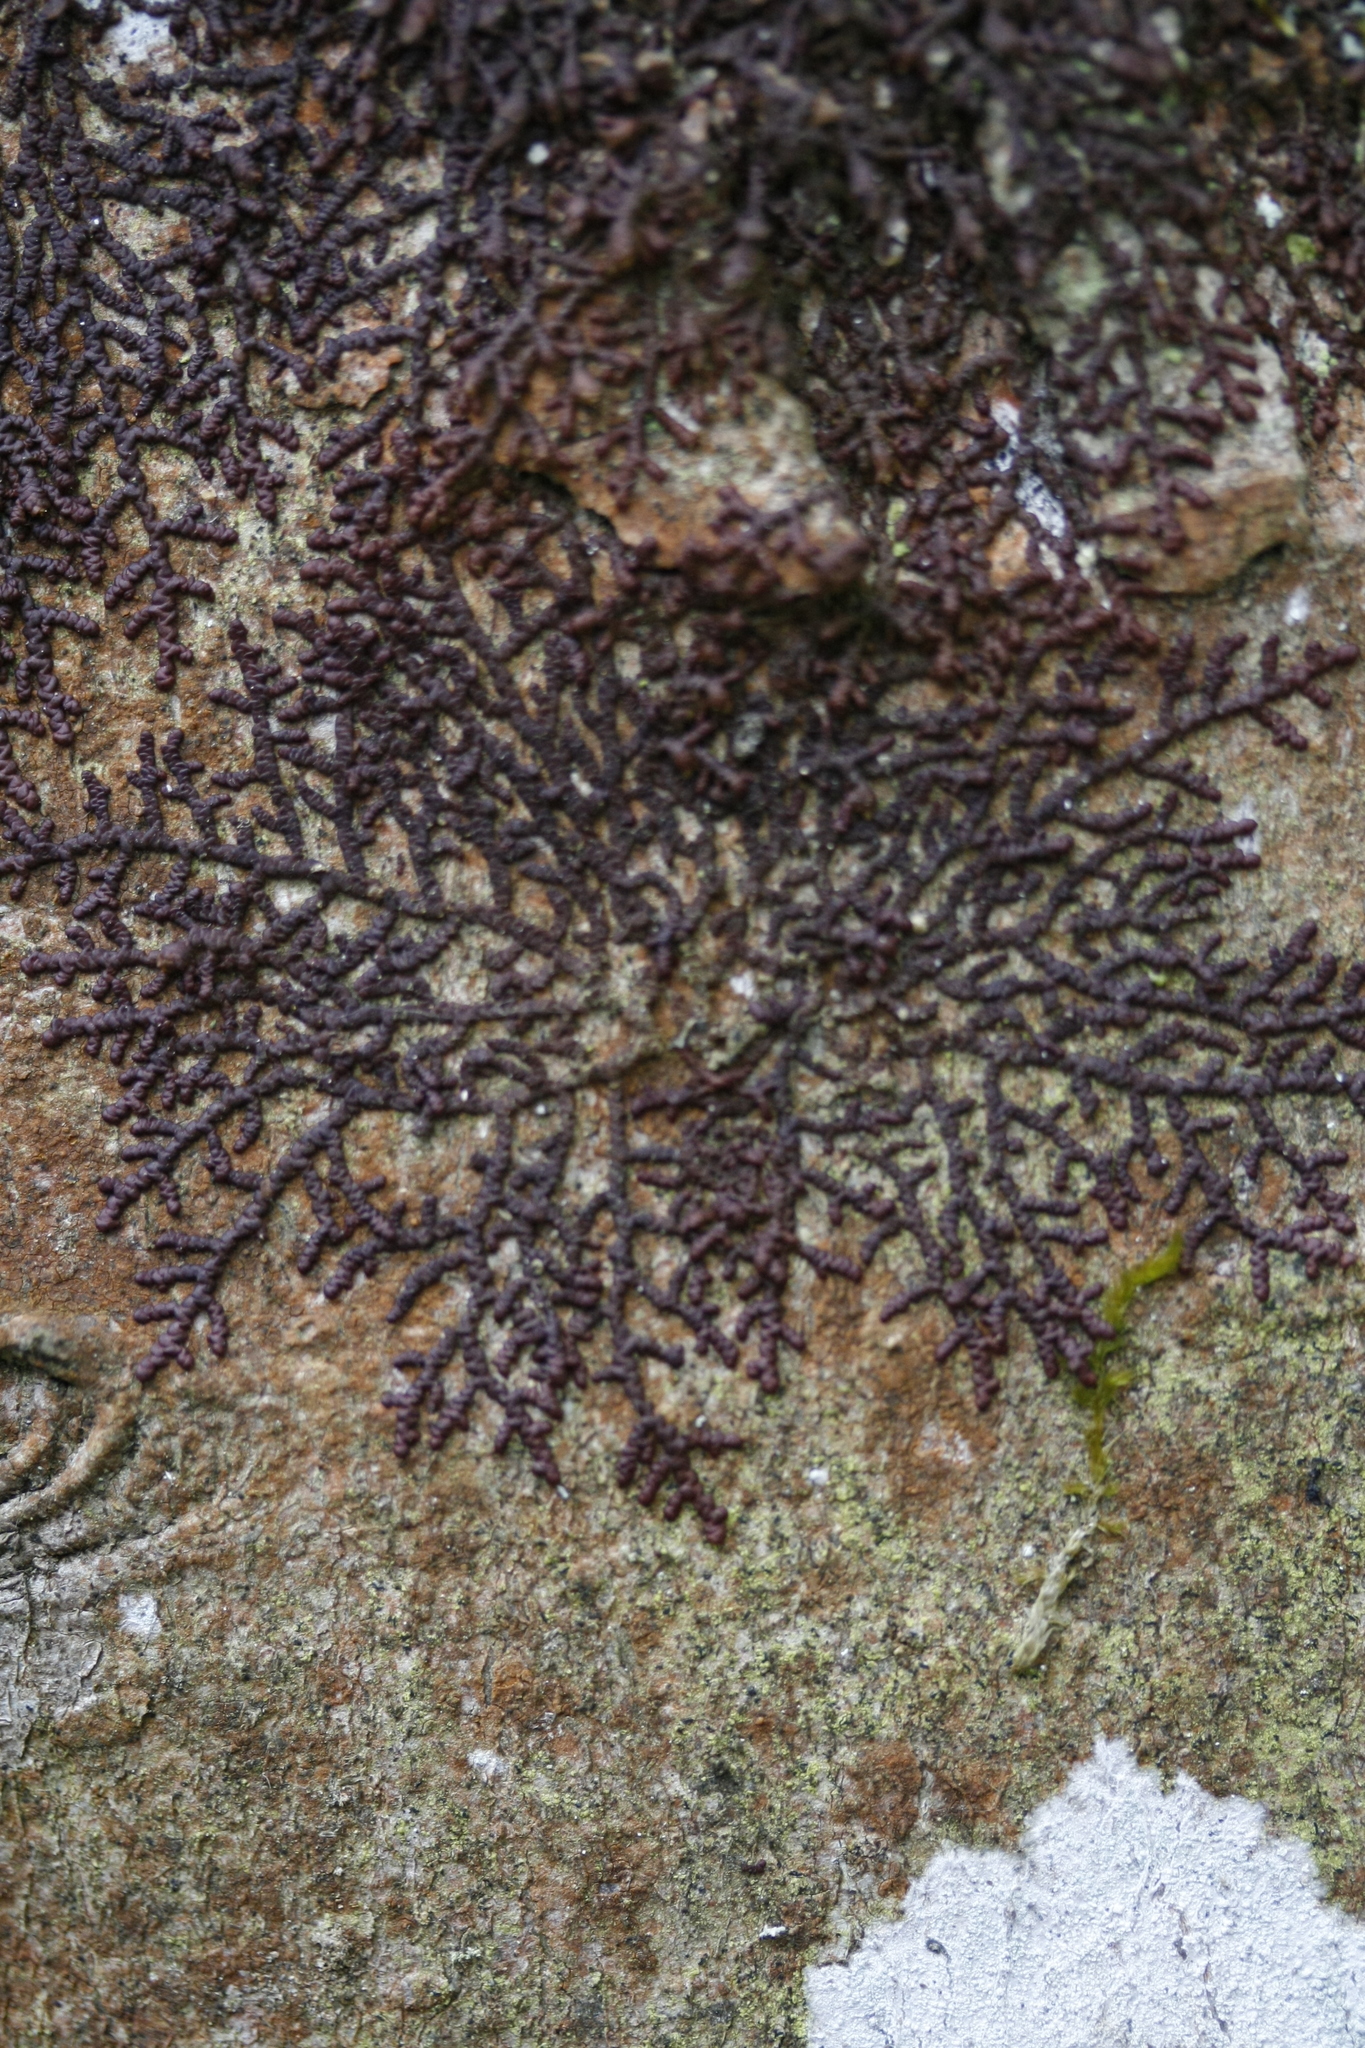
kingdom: Plantae
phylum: Marchantiophyta
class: Jungermanniopsida
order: Porellales
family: Frullaniaceae
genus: Frullania
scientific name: Frullania dilatata
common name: Dilated scalewort
